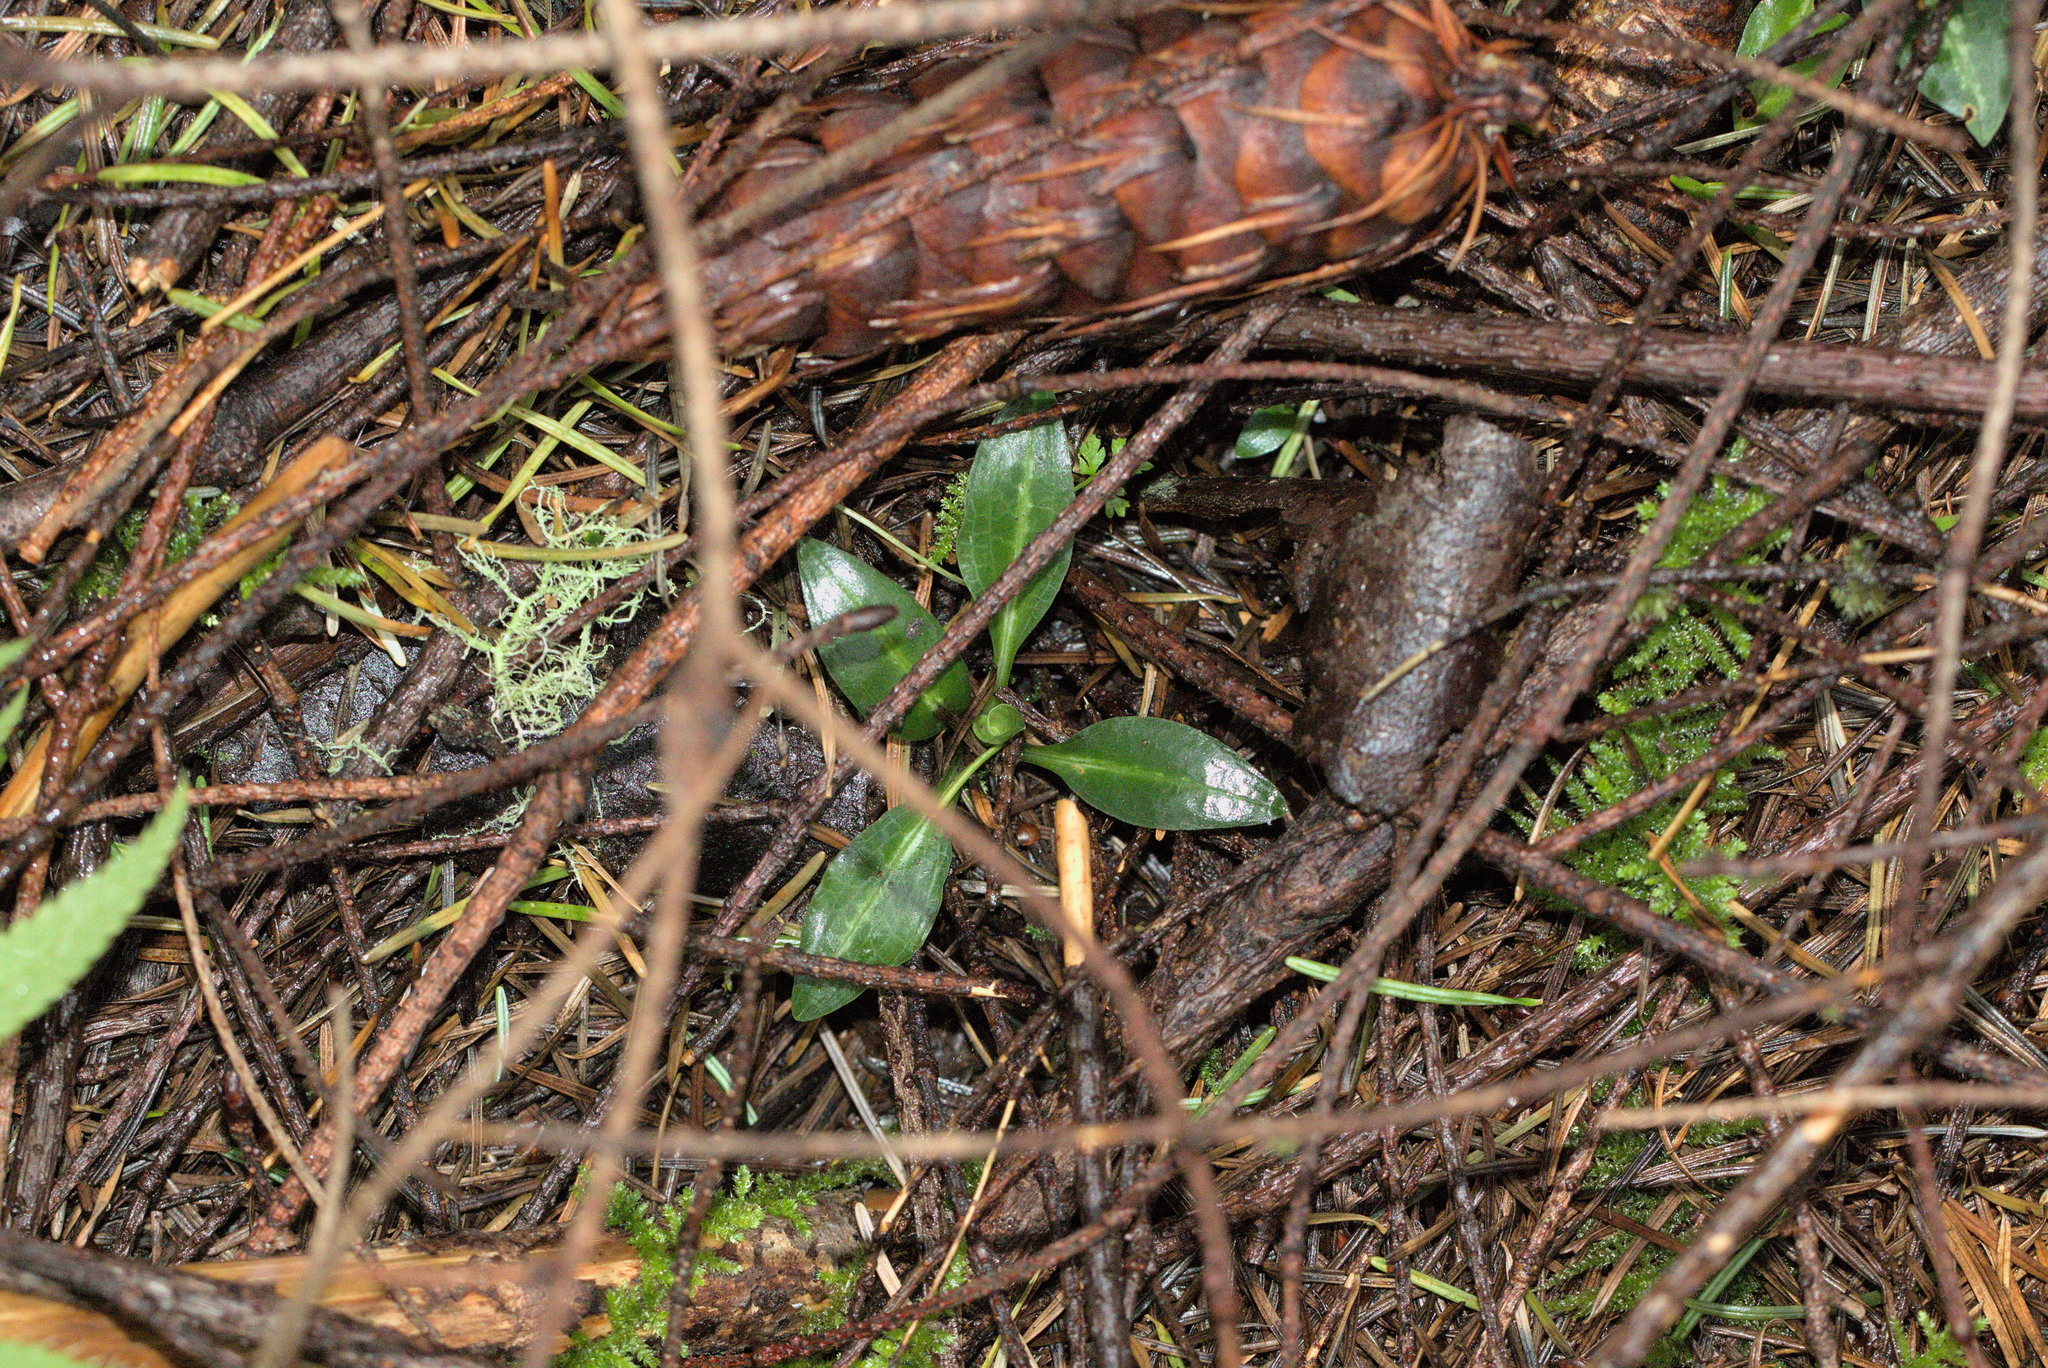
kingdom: Plantae
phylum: Tracheophyta
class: Liliopsida
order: Asparagales
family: Orchidaceae
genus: Goodyera
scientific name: Goodyera oblongifolia
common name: Giant rattlesnake-plantain
